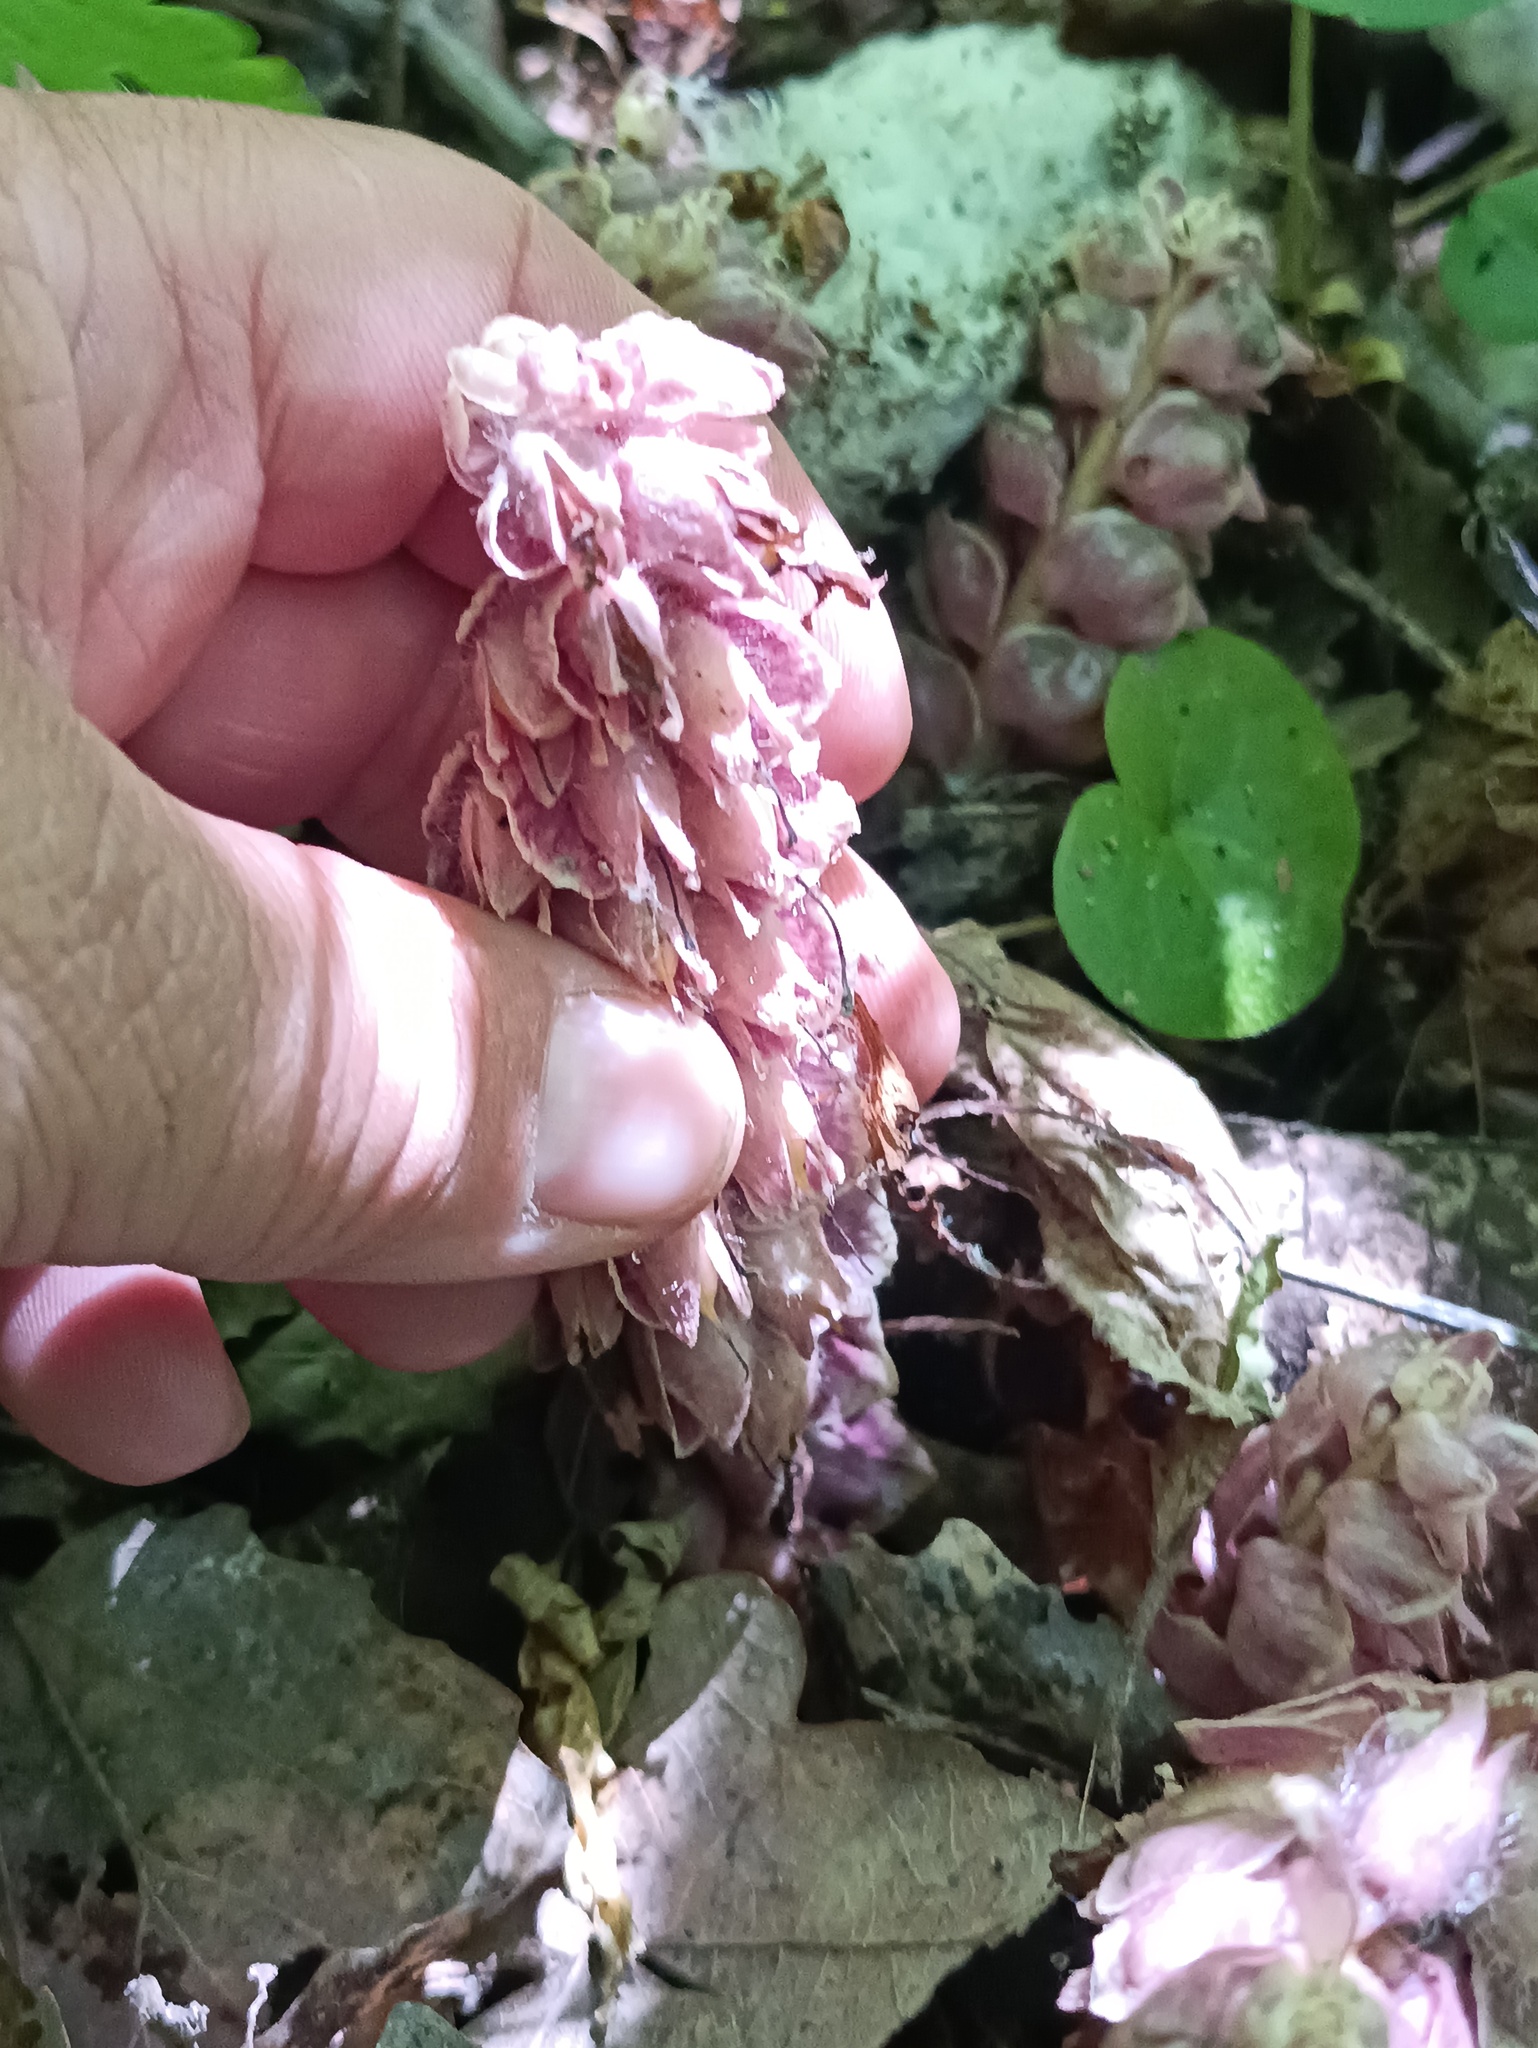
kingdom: Plantae
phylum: Tracheophyta
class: Magnoliopsida
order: Lamiales
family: Orobanchaceae
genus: Lathraea
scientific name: Lathraea squamaria
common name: Toothwort
